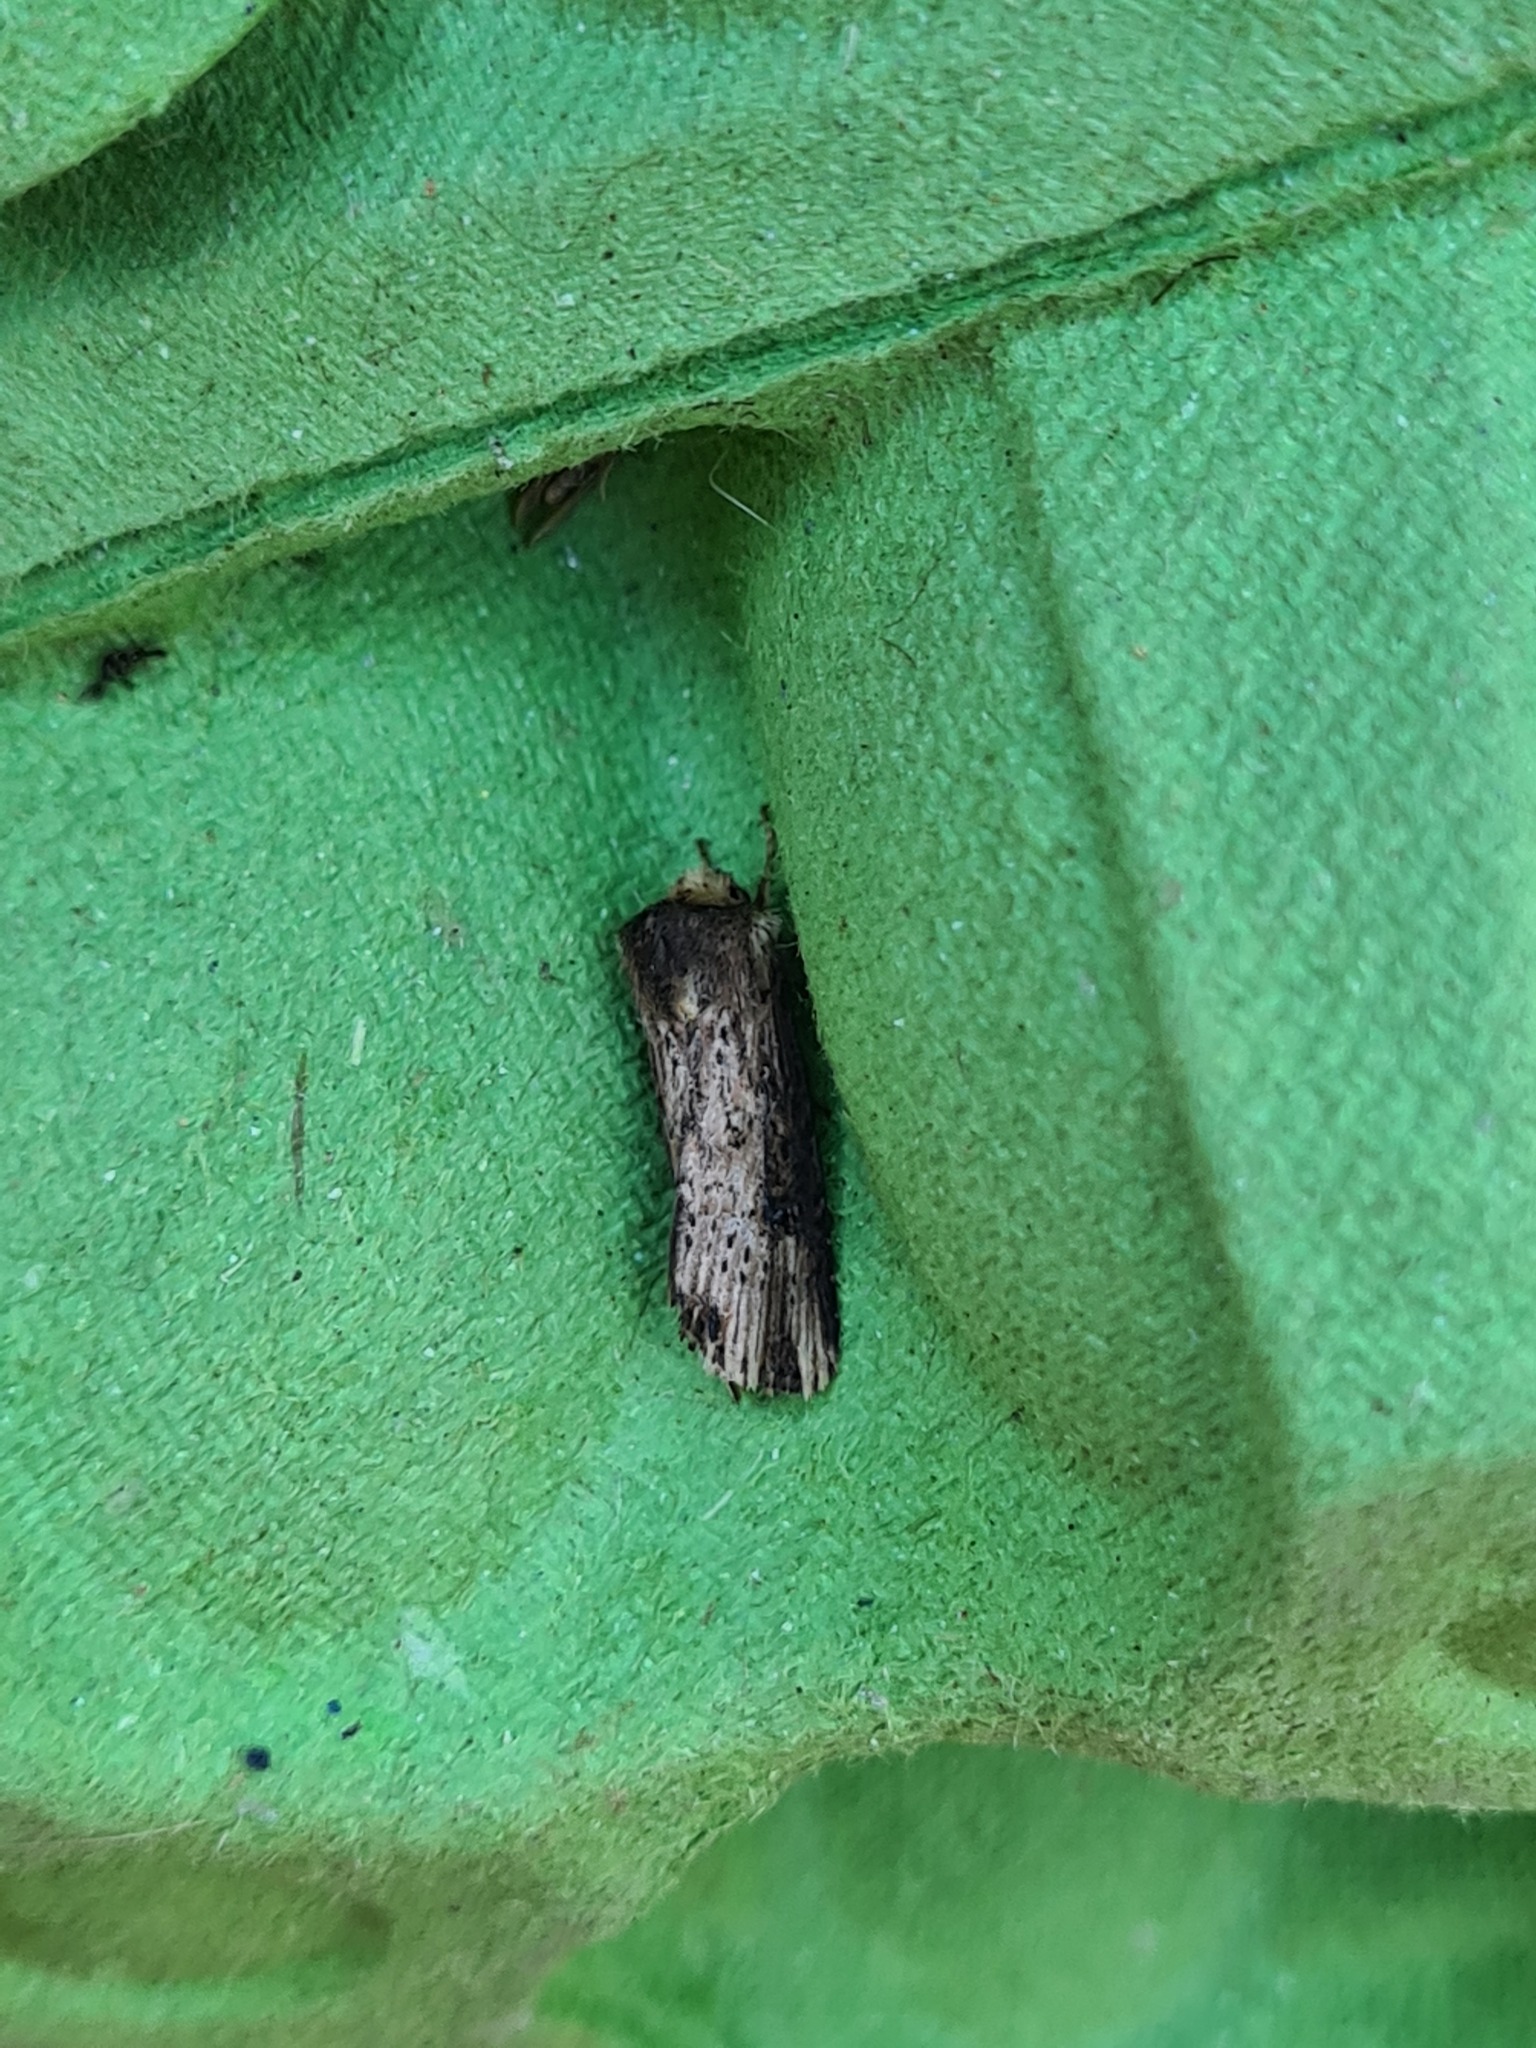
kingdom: Animalia
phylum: Arthropoda
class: Insecta
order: Lepidoptera
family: Noctuidae
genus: Axylia
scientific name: Axylia putris
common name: Flame
